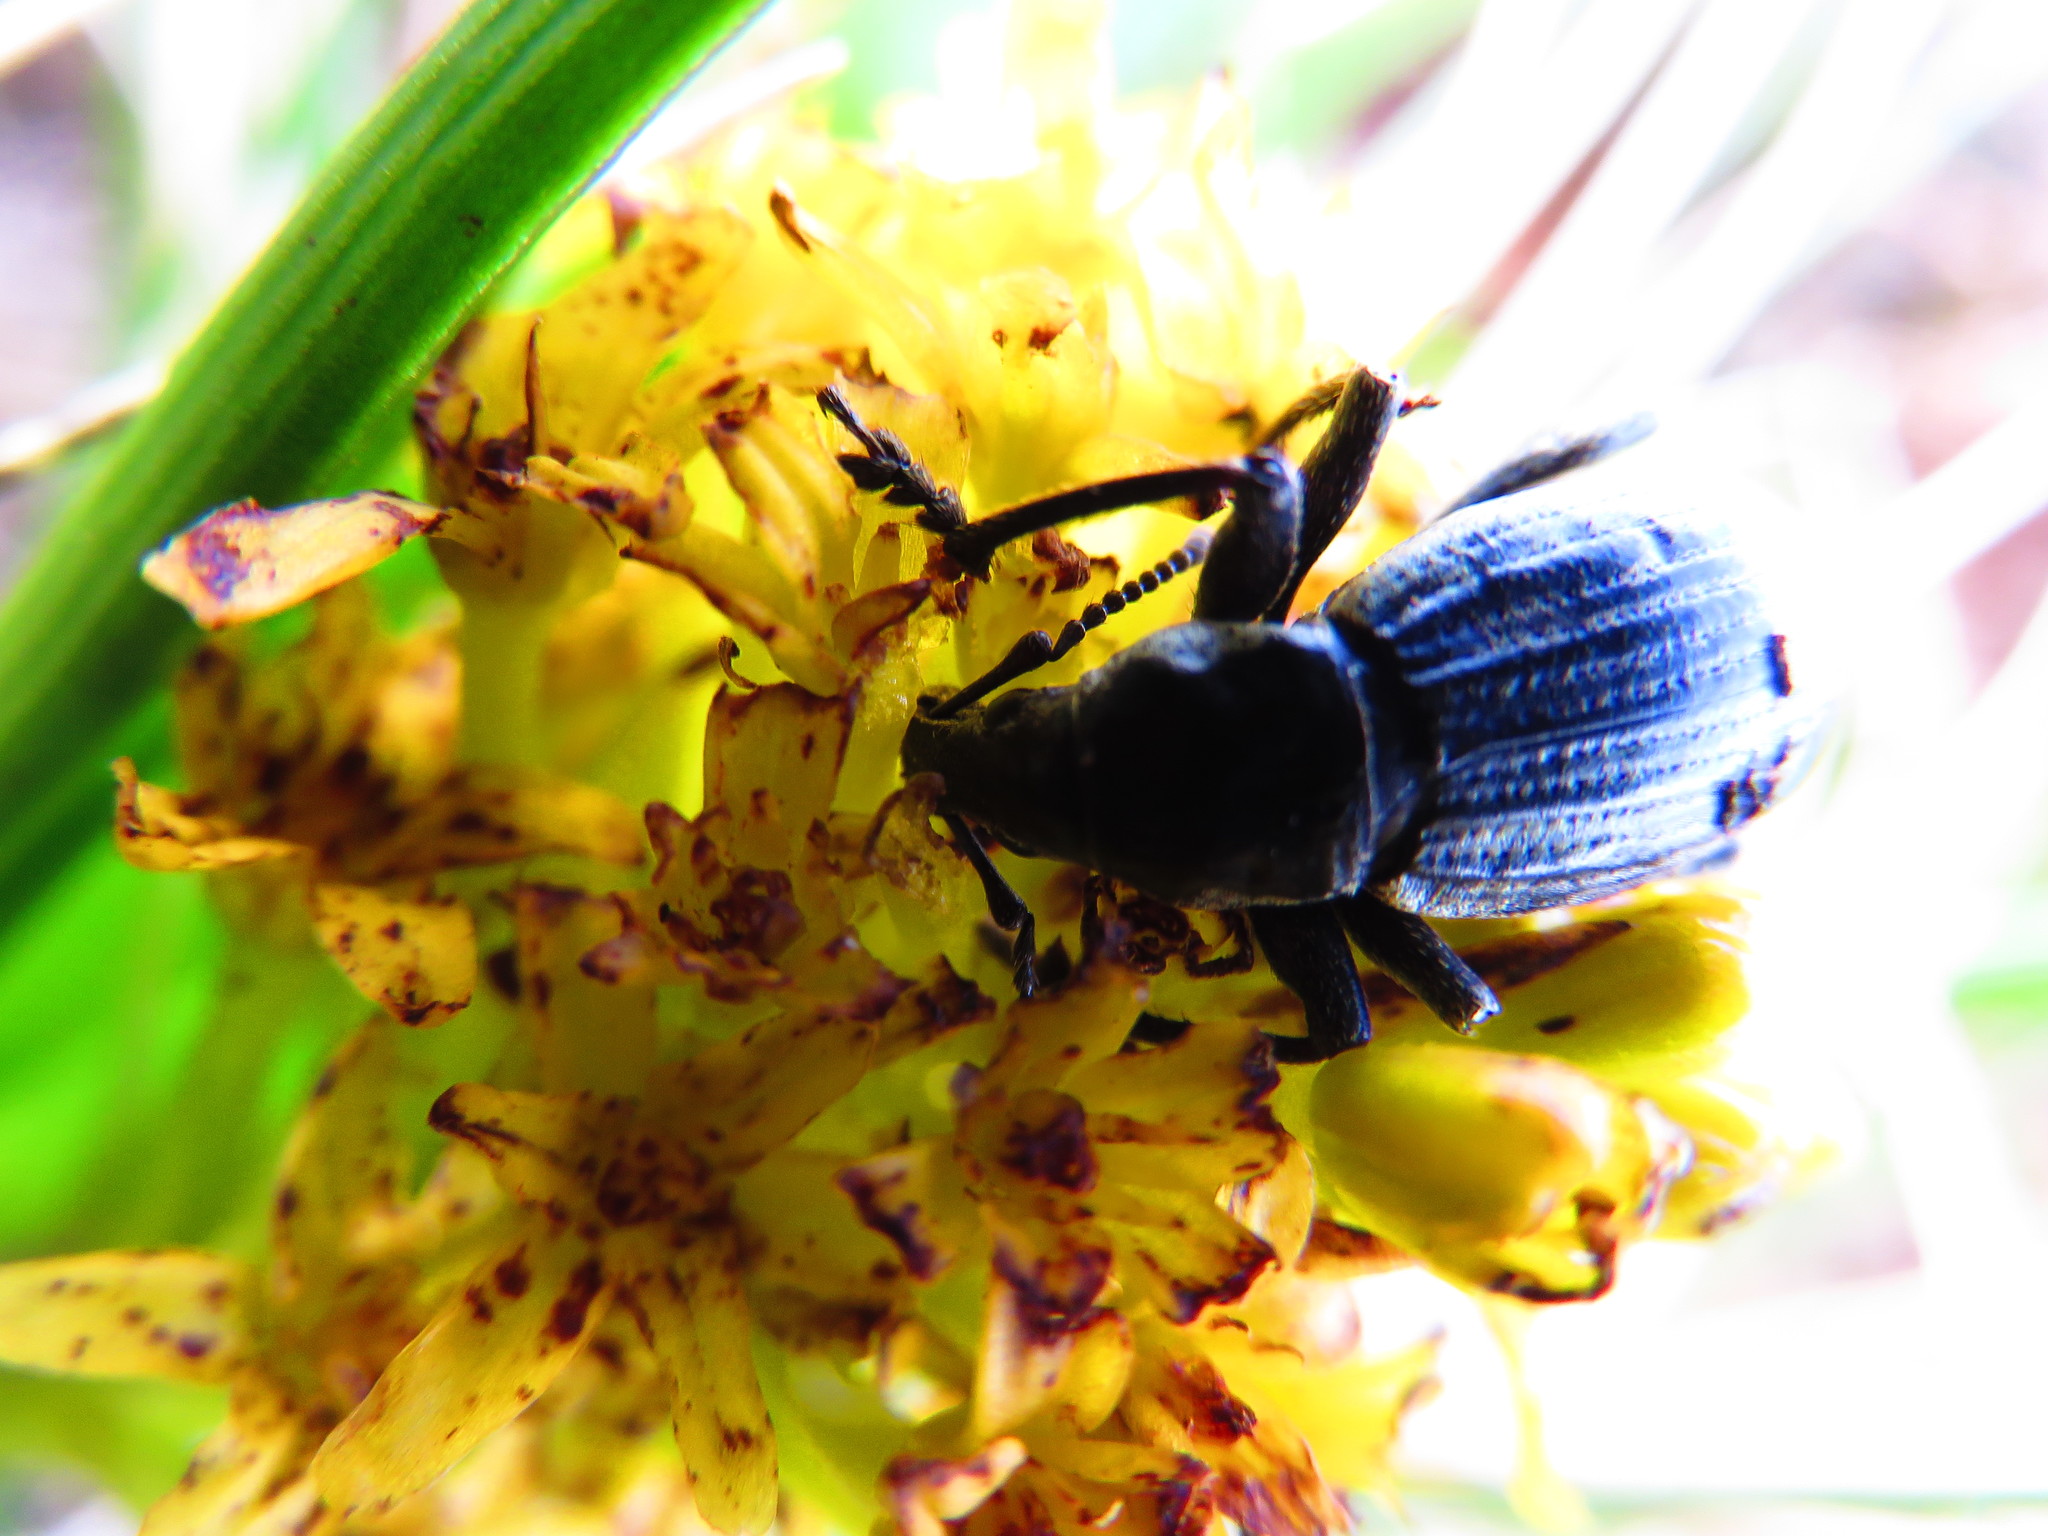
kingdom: Animalia
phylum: Arthropoda
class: Insecta
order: Coleoptera
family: Curculionidae
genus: Oclandius
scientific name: Oclandius cinereus
